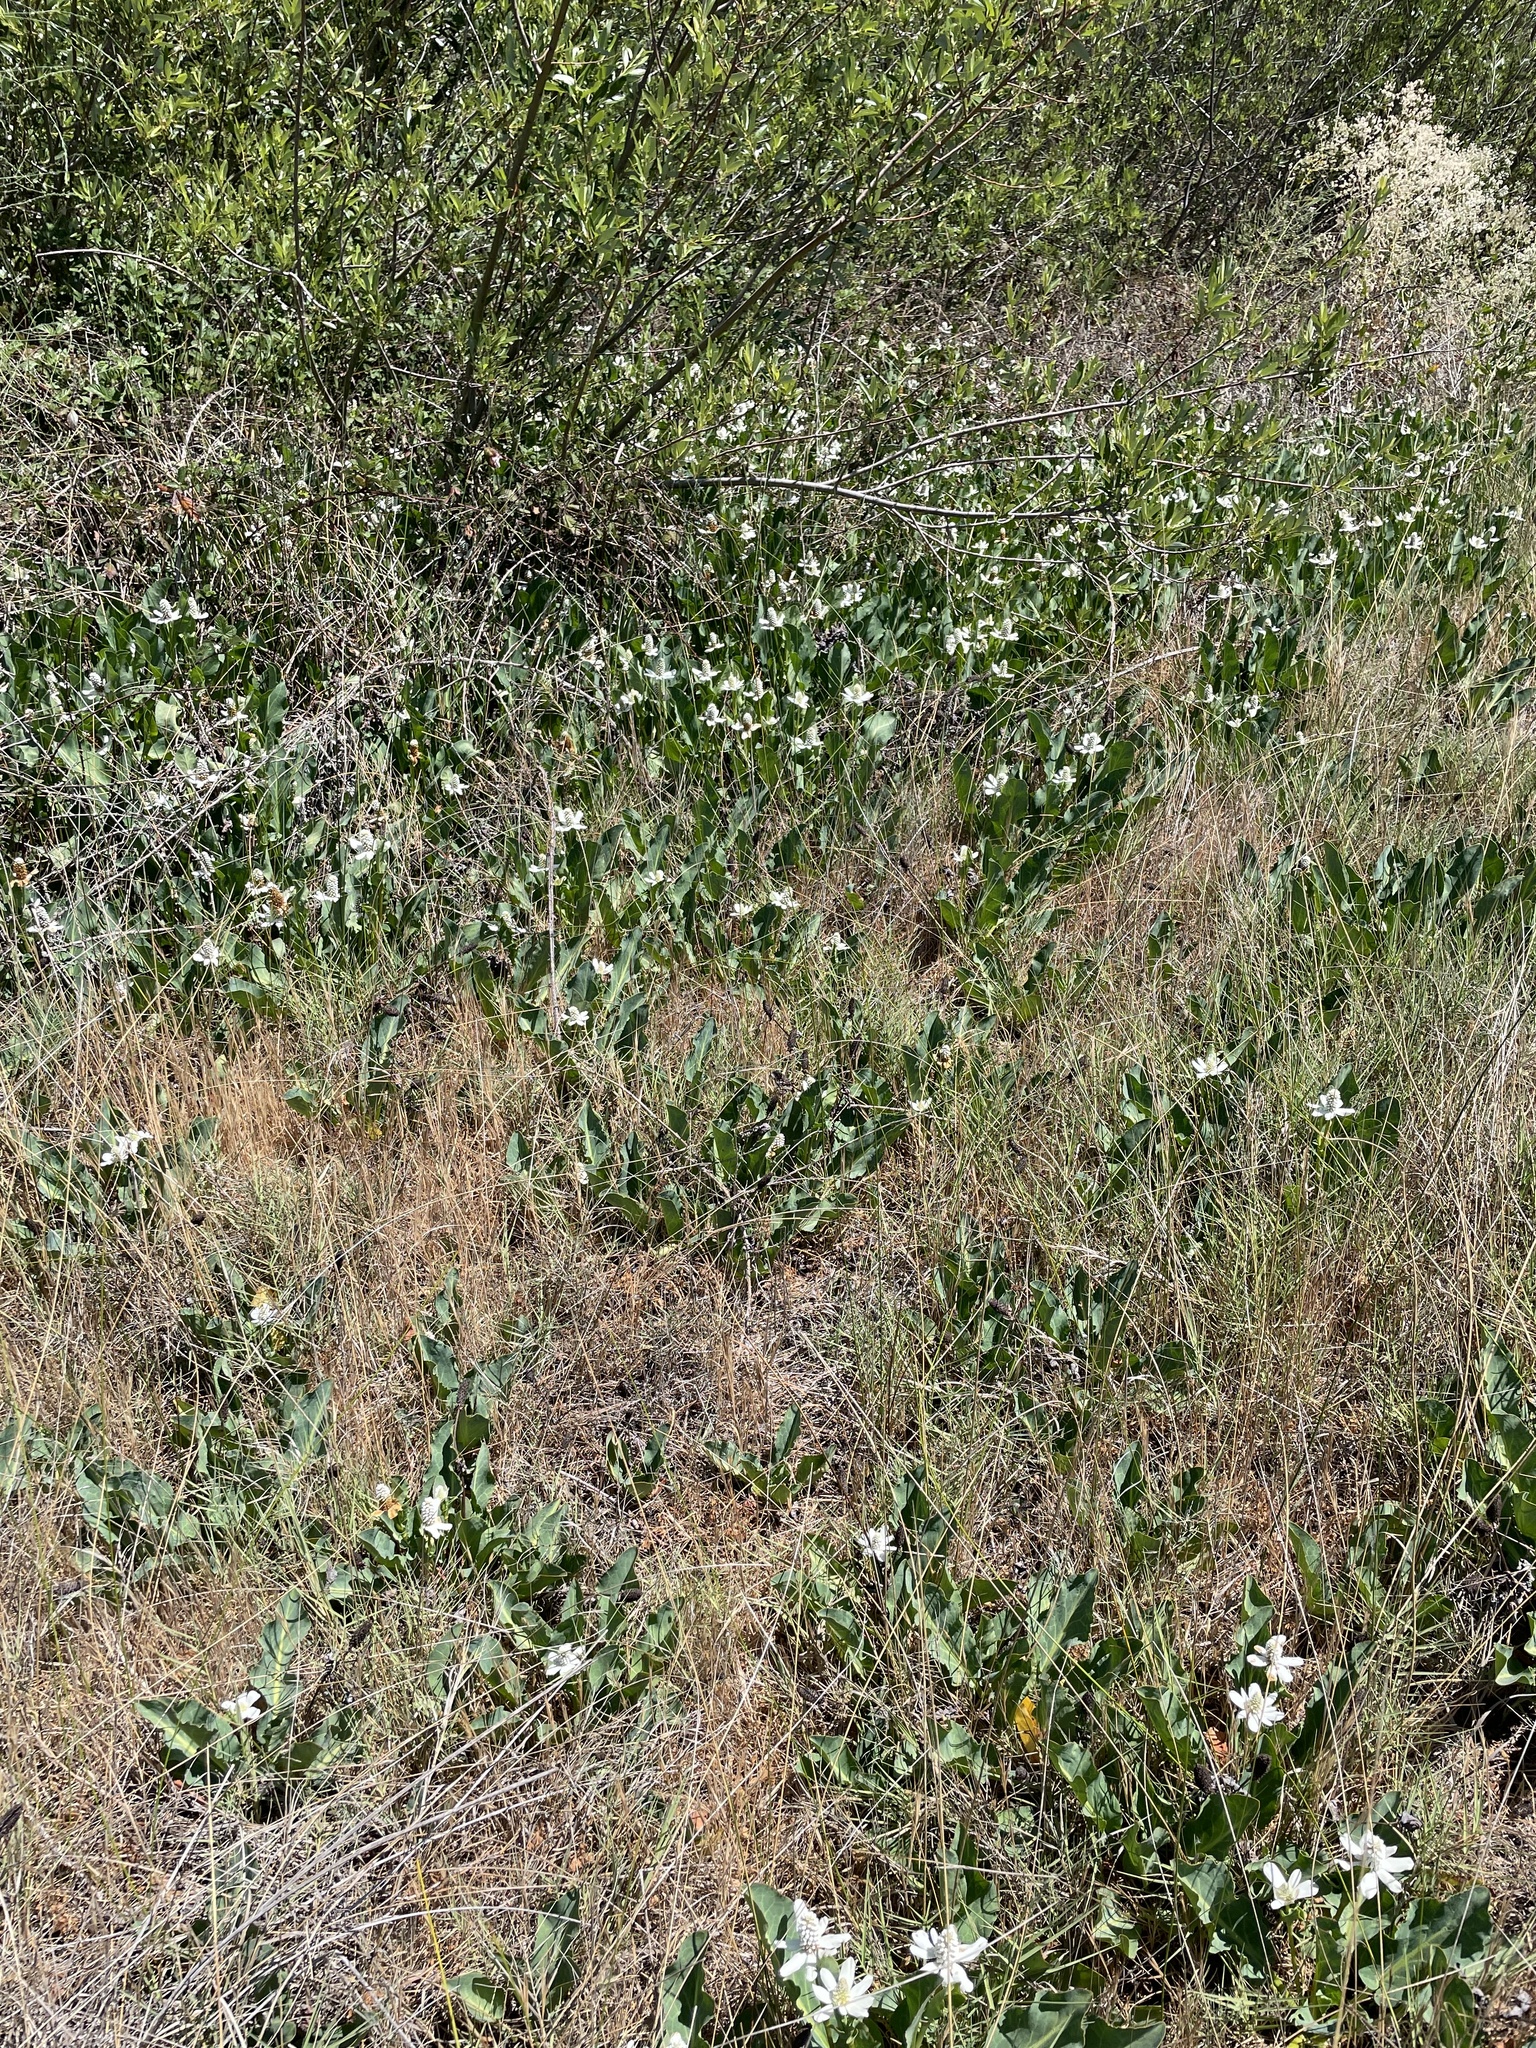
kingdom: Plantae
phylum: Tracheophyta
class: Magnoliopsida
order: Piperales
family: Saururaceae
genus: Anemopsis
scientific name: Anemopsis californica
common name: Apache-beads
